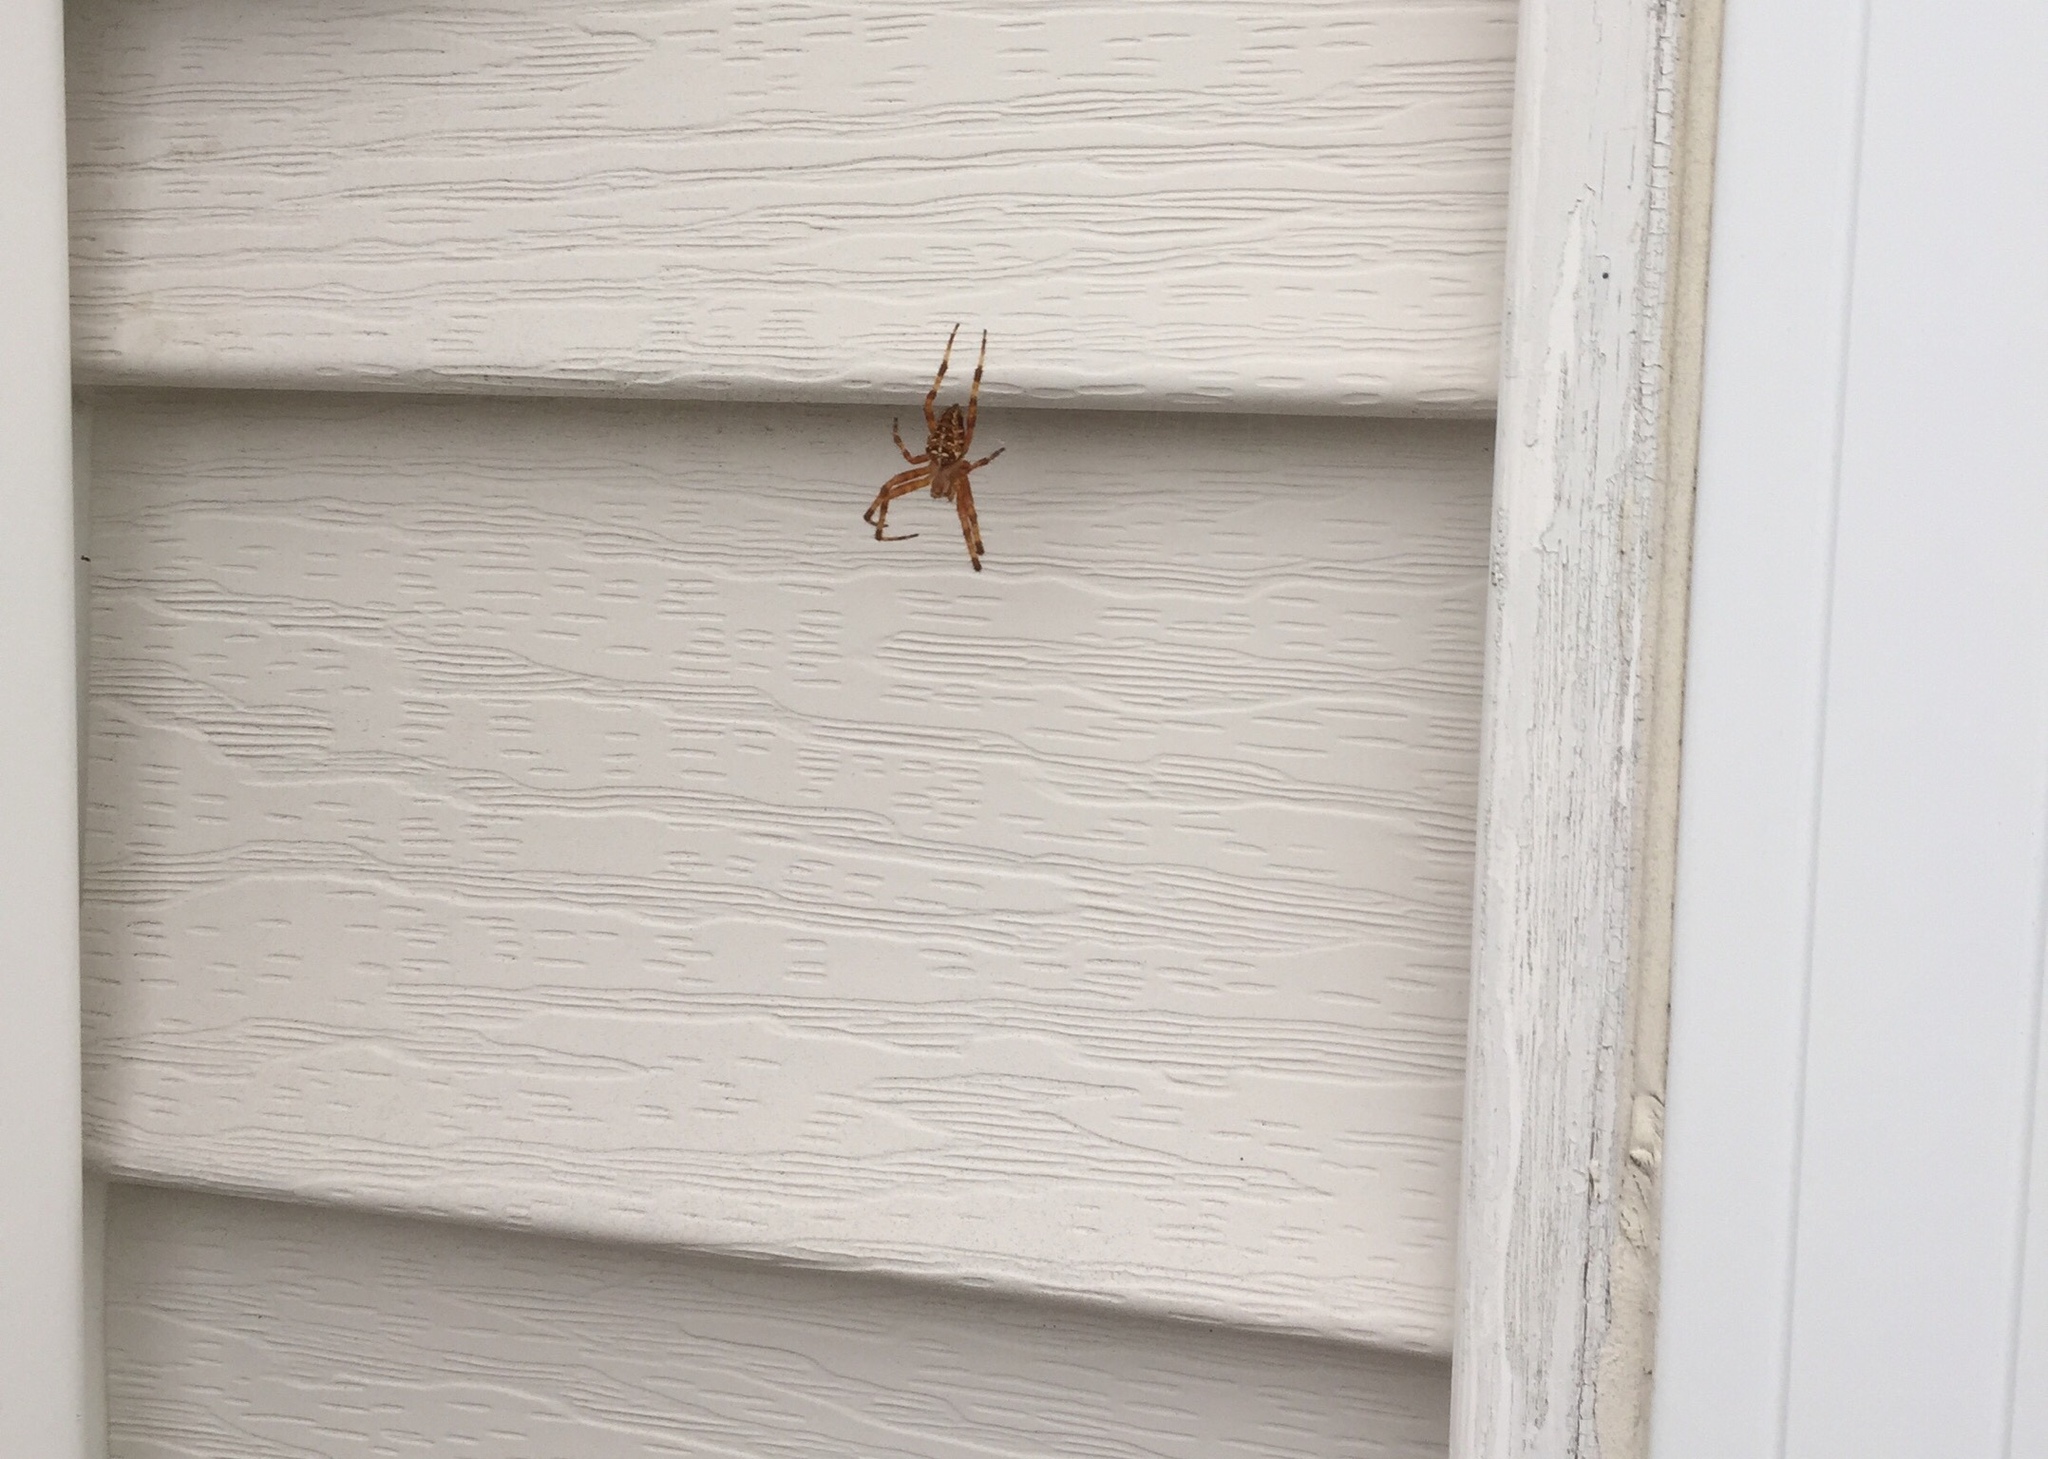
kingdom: Animalia
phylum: Arthropoda
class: Arachnida
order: Araneae
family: Araneidae
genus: Araneus
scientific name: Araneus diadematus
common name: Cross orbweaver
